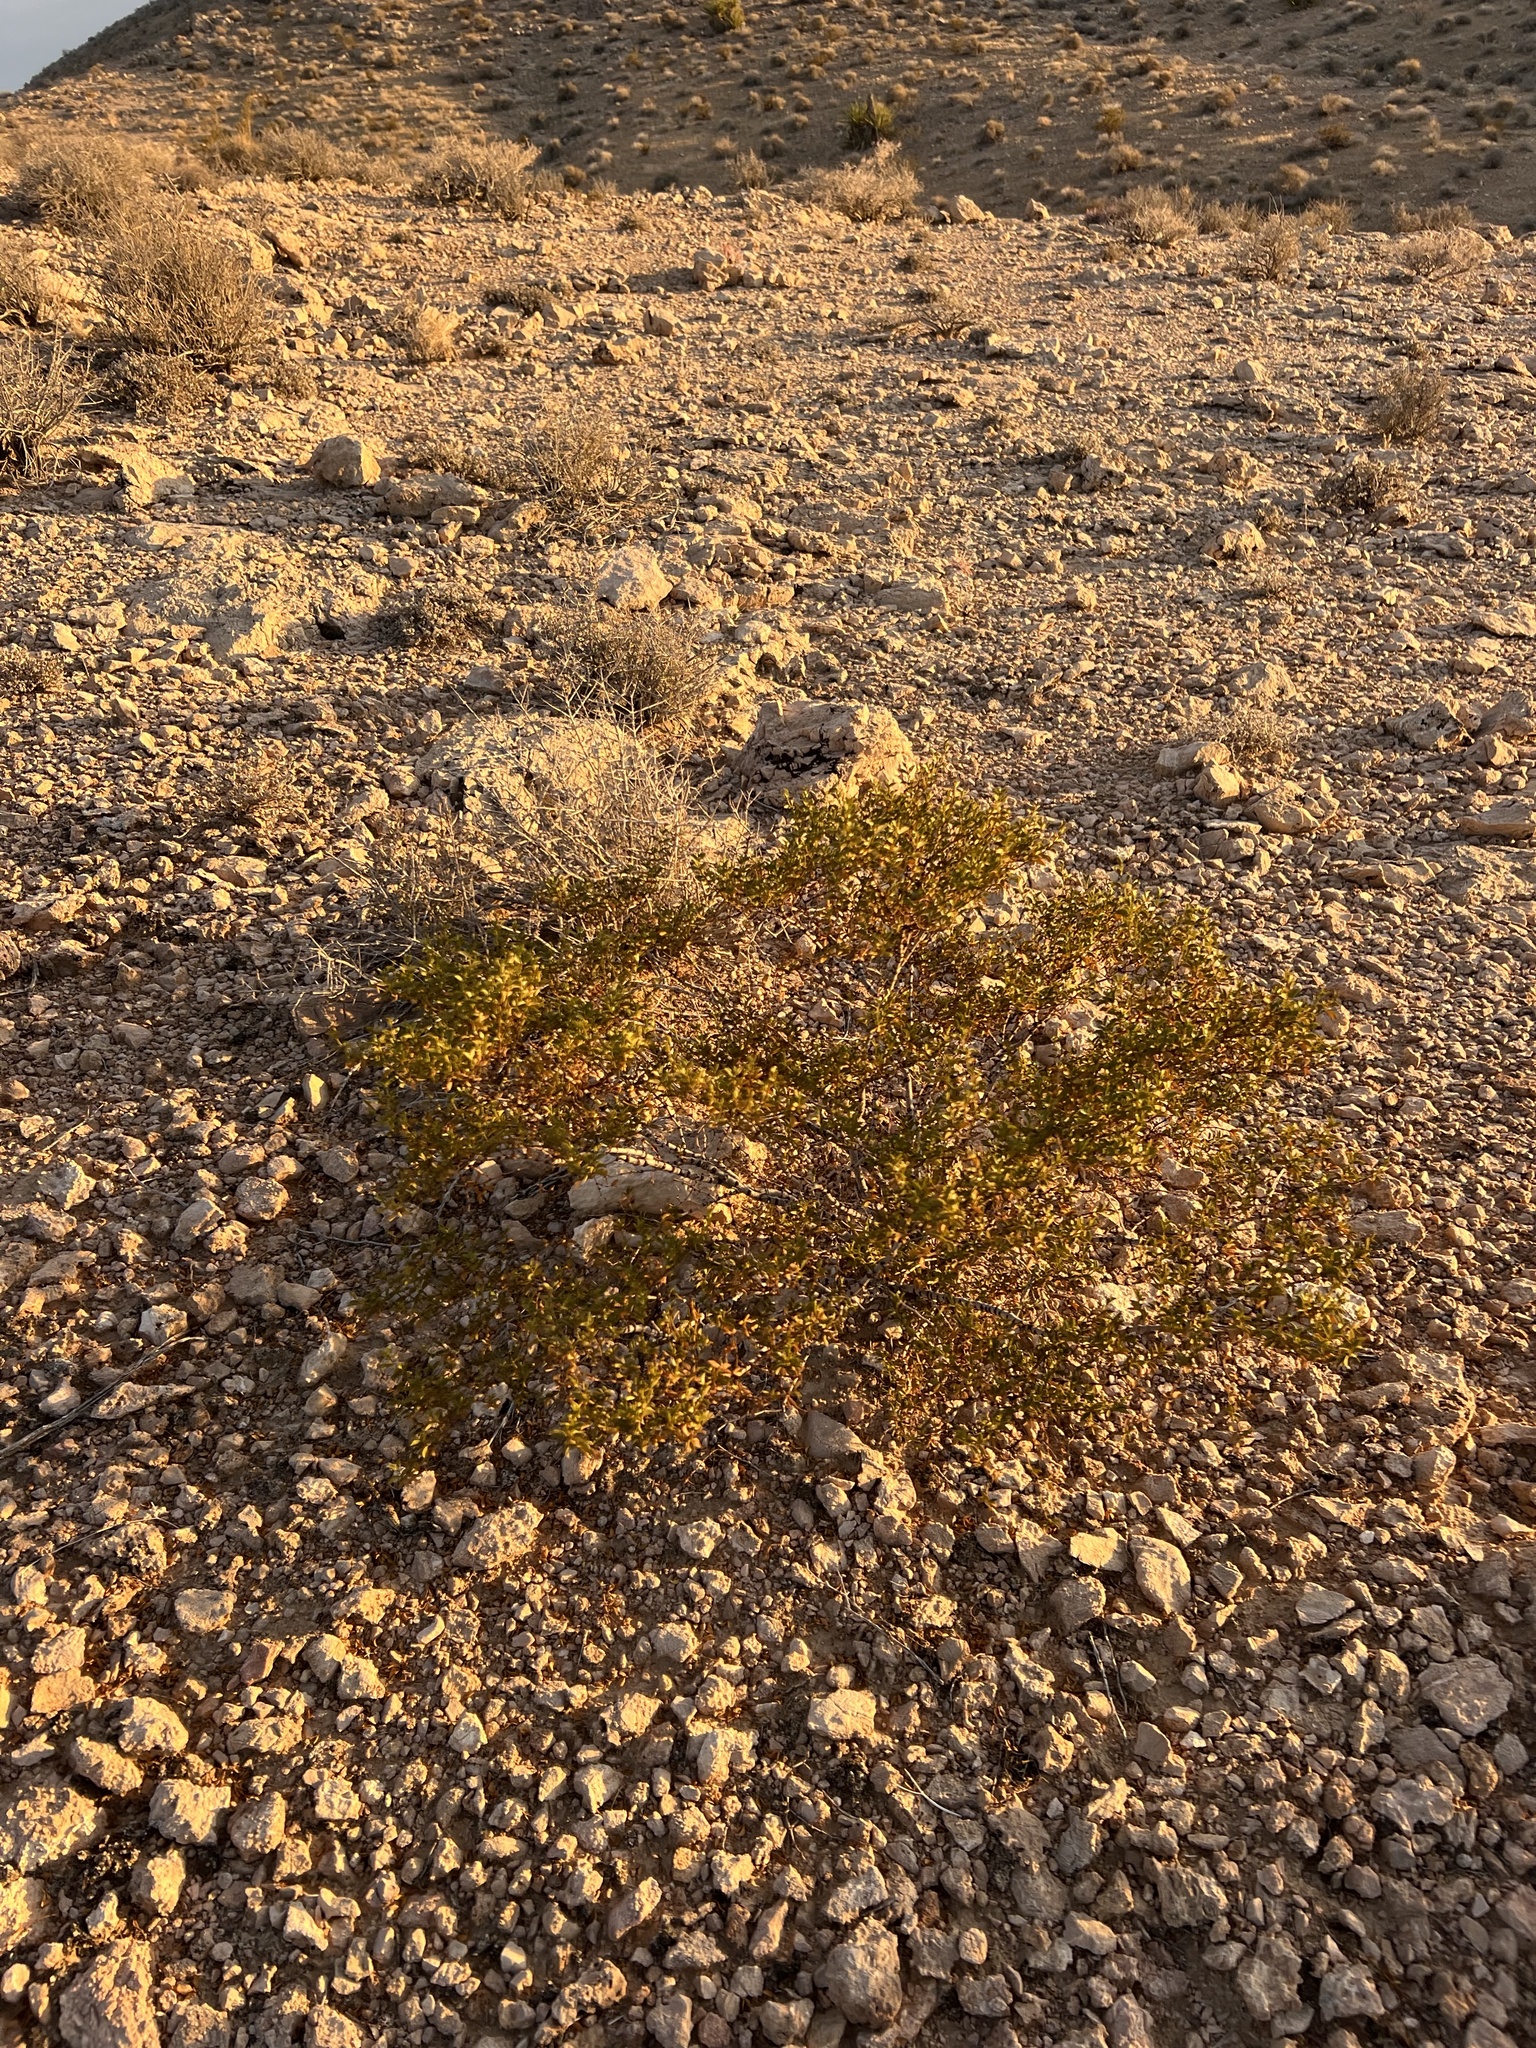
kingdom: Plantae
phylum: Tracheophyta
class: Magnoliopsida
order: Zygophyllales
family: Zygophyllaceae
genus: Larrea
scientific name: Larrea tridentata
